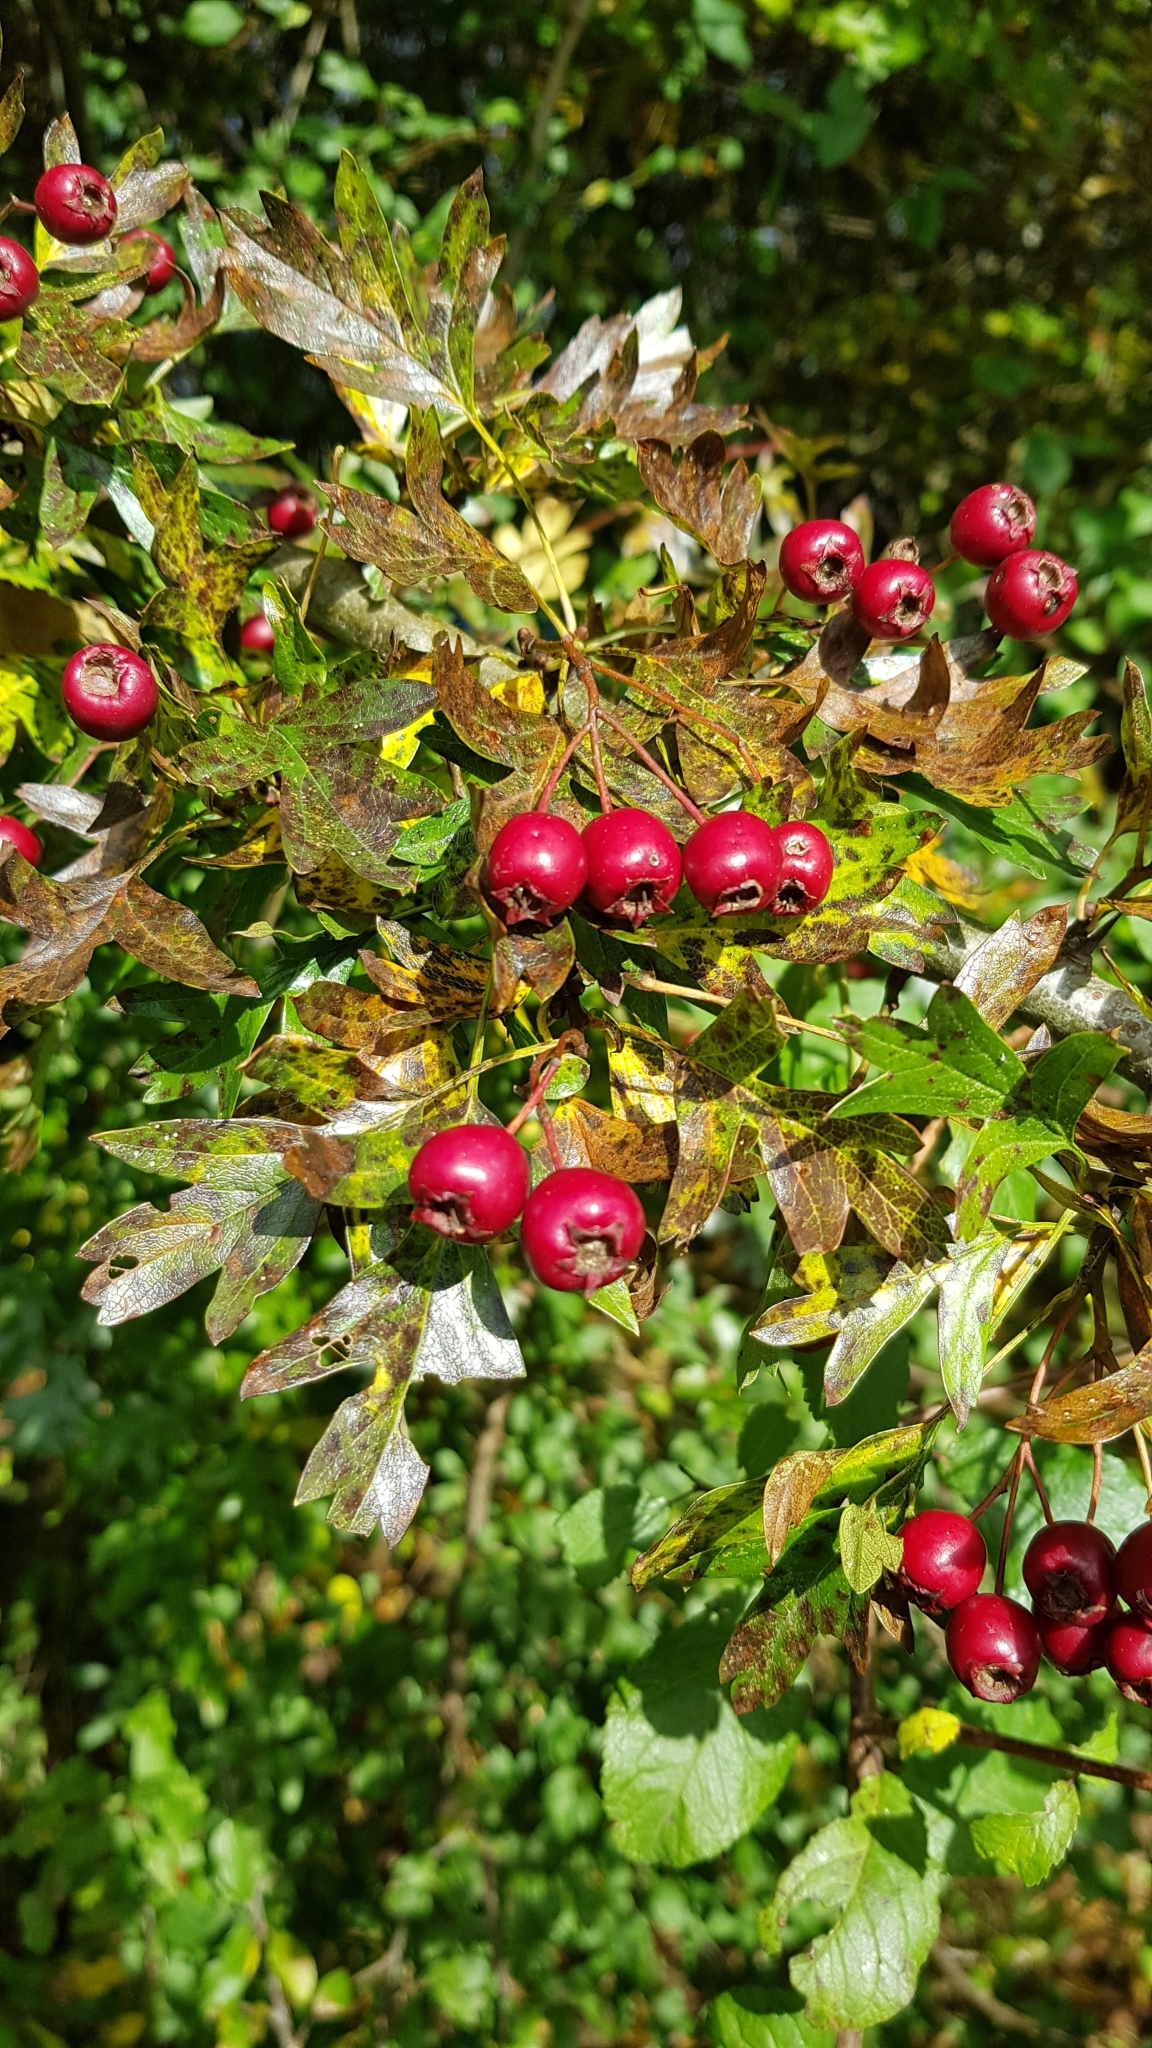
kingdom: Plantae
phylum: Tracheophyta
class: Magnoliopsida
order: Rosales
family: Rosaceae
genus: Crataegus
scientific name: Crataegus monogyna
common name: Hawthorn
